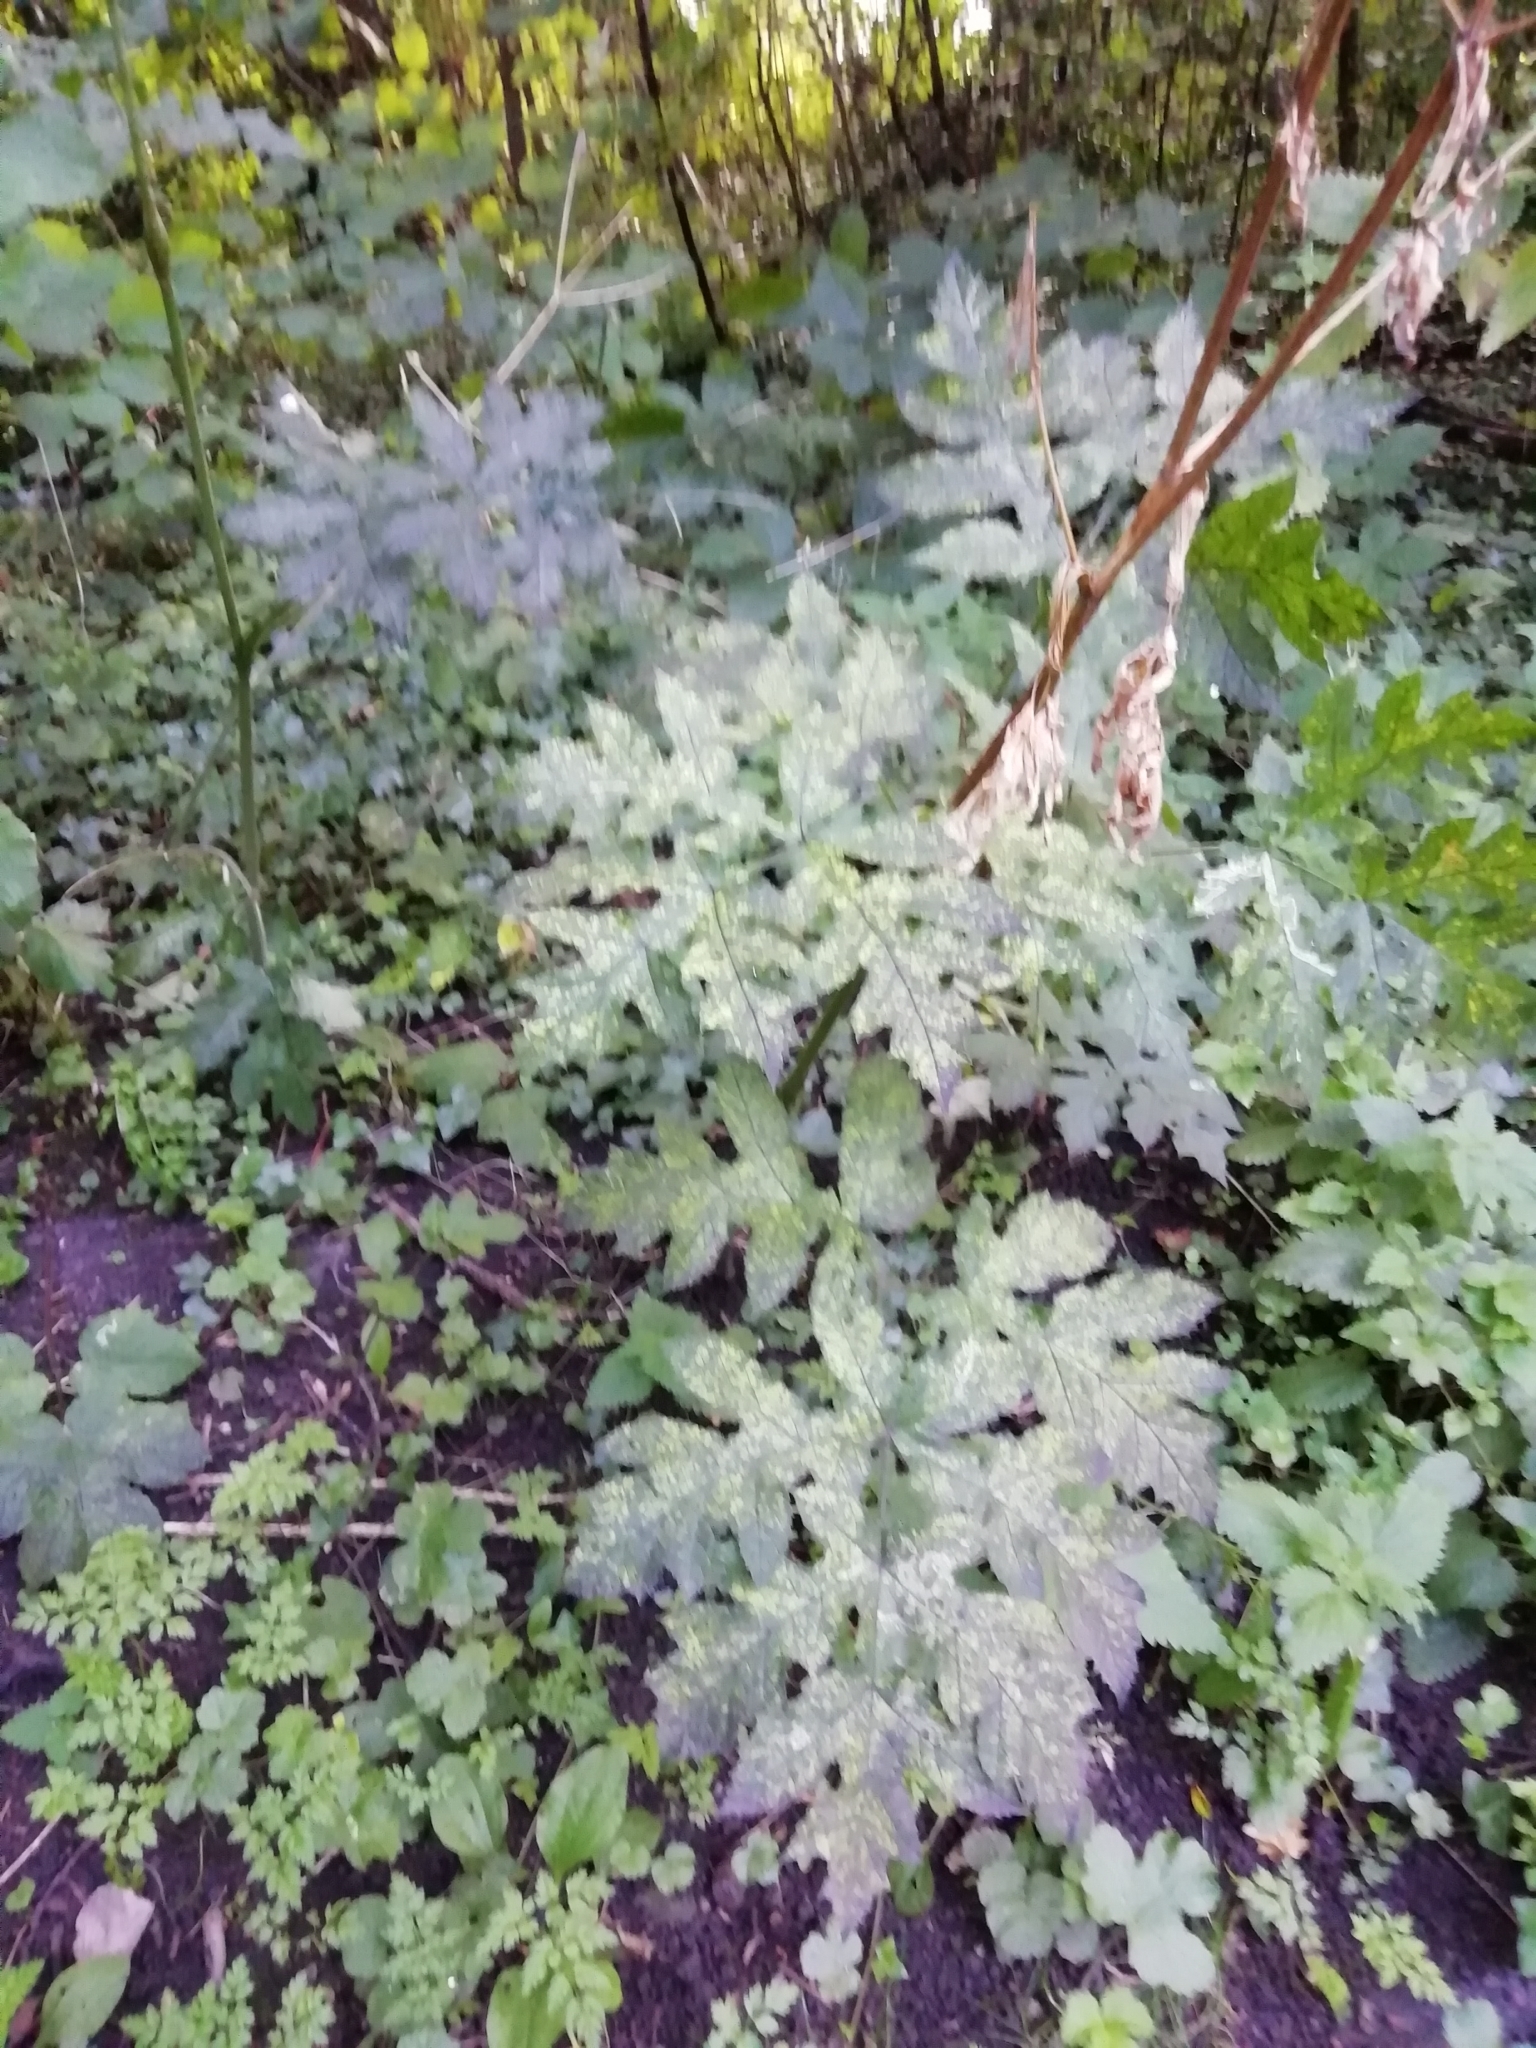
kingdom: Plantae
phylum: Tracheophyta
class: Magnoliopsida
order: Apiales
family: Apiaceae
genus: Heracleum
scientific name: Heracleum sphondylium
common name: Hogweed
